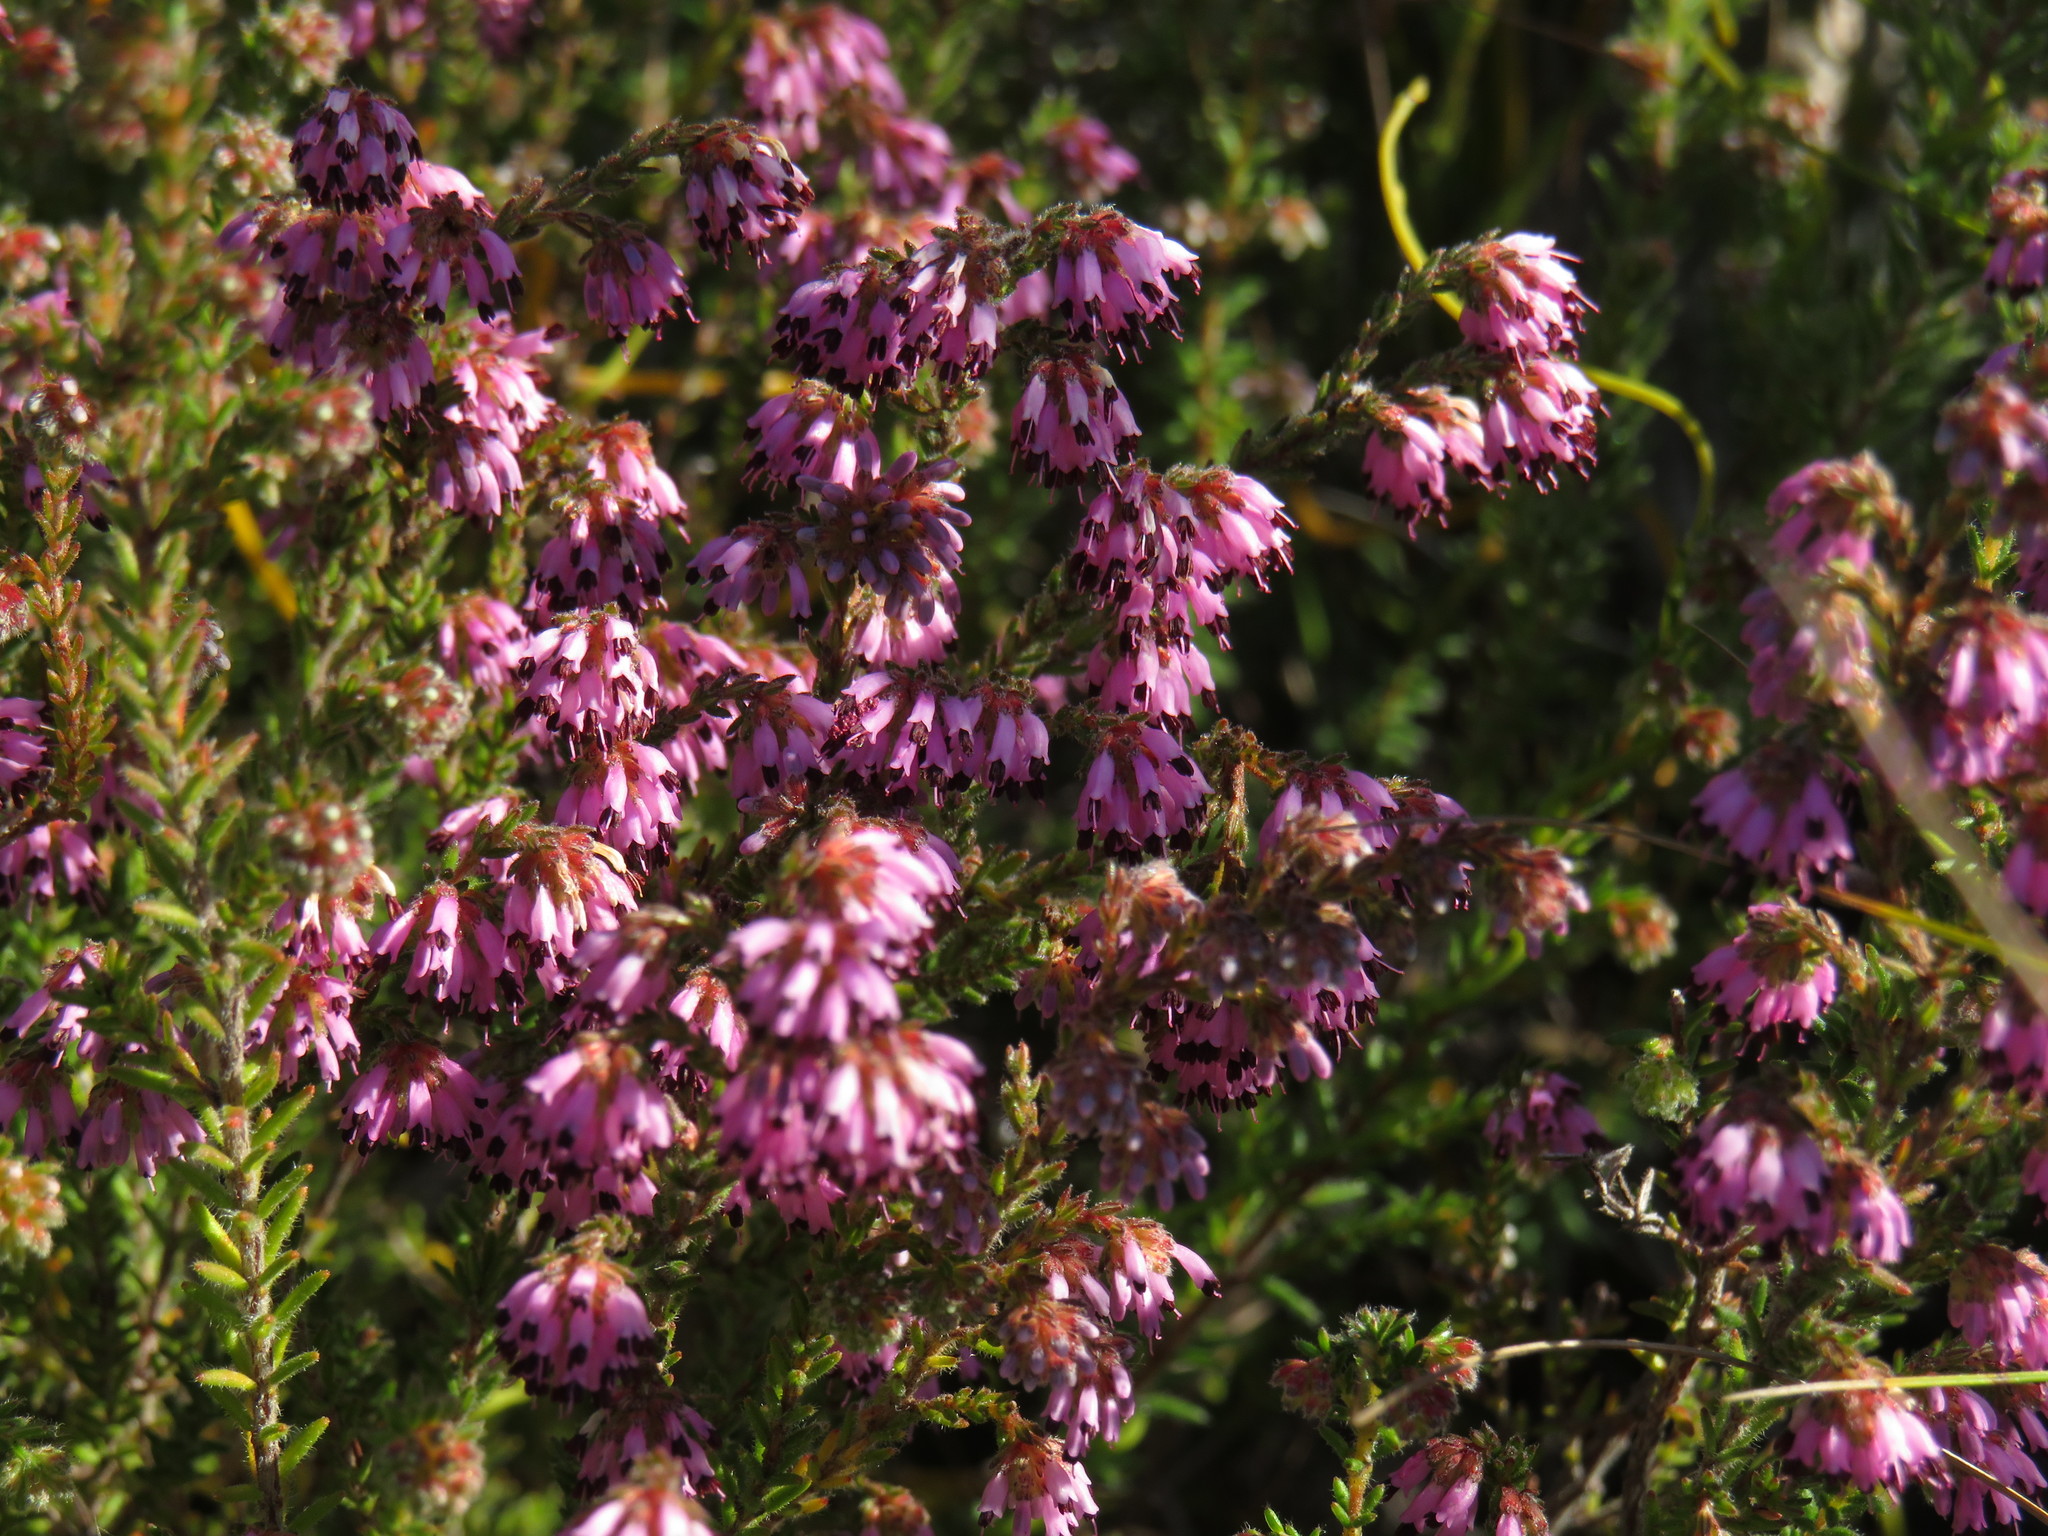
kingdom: Plantae
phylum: Tracheophyta
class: Magnoliopsida
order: Ericales
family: Ericaceae
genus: Erica
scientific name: Erica ericoides
